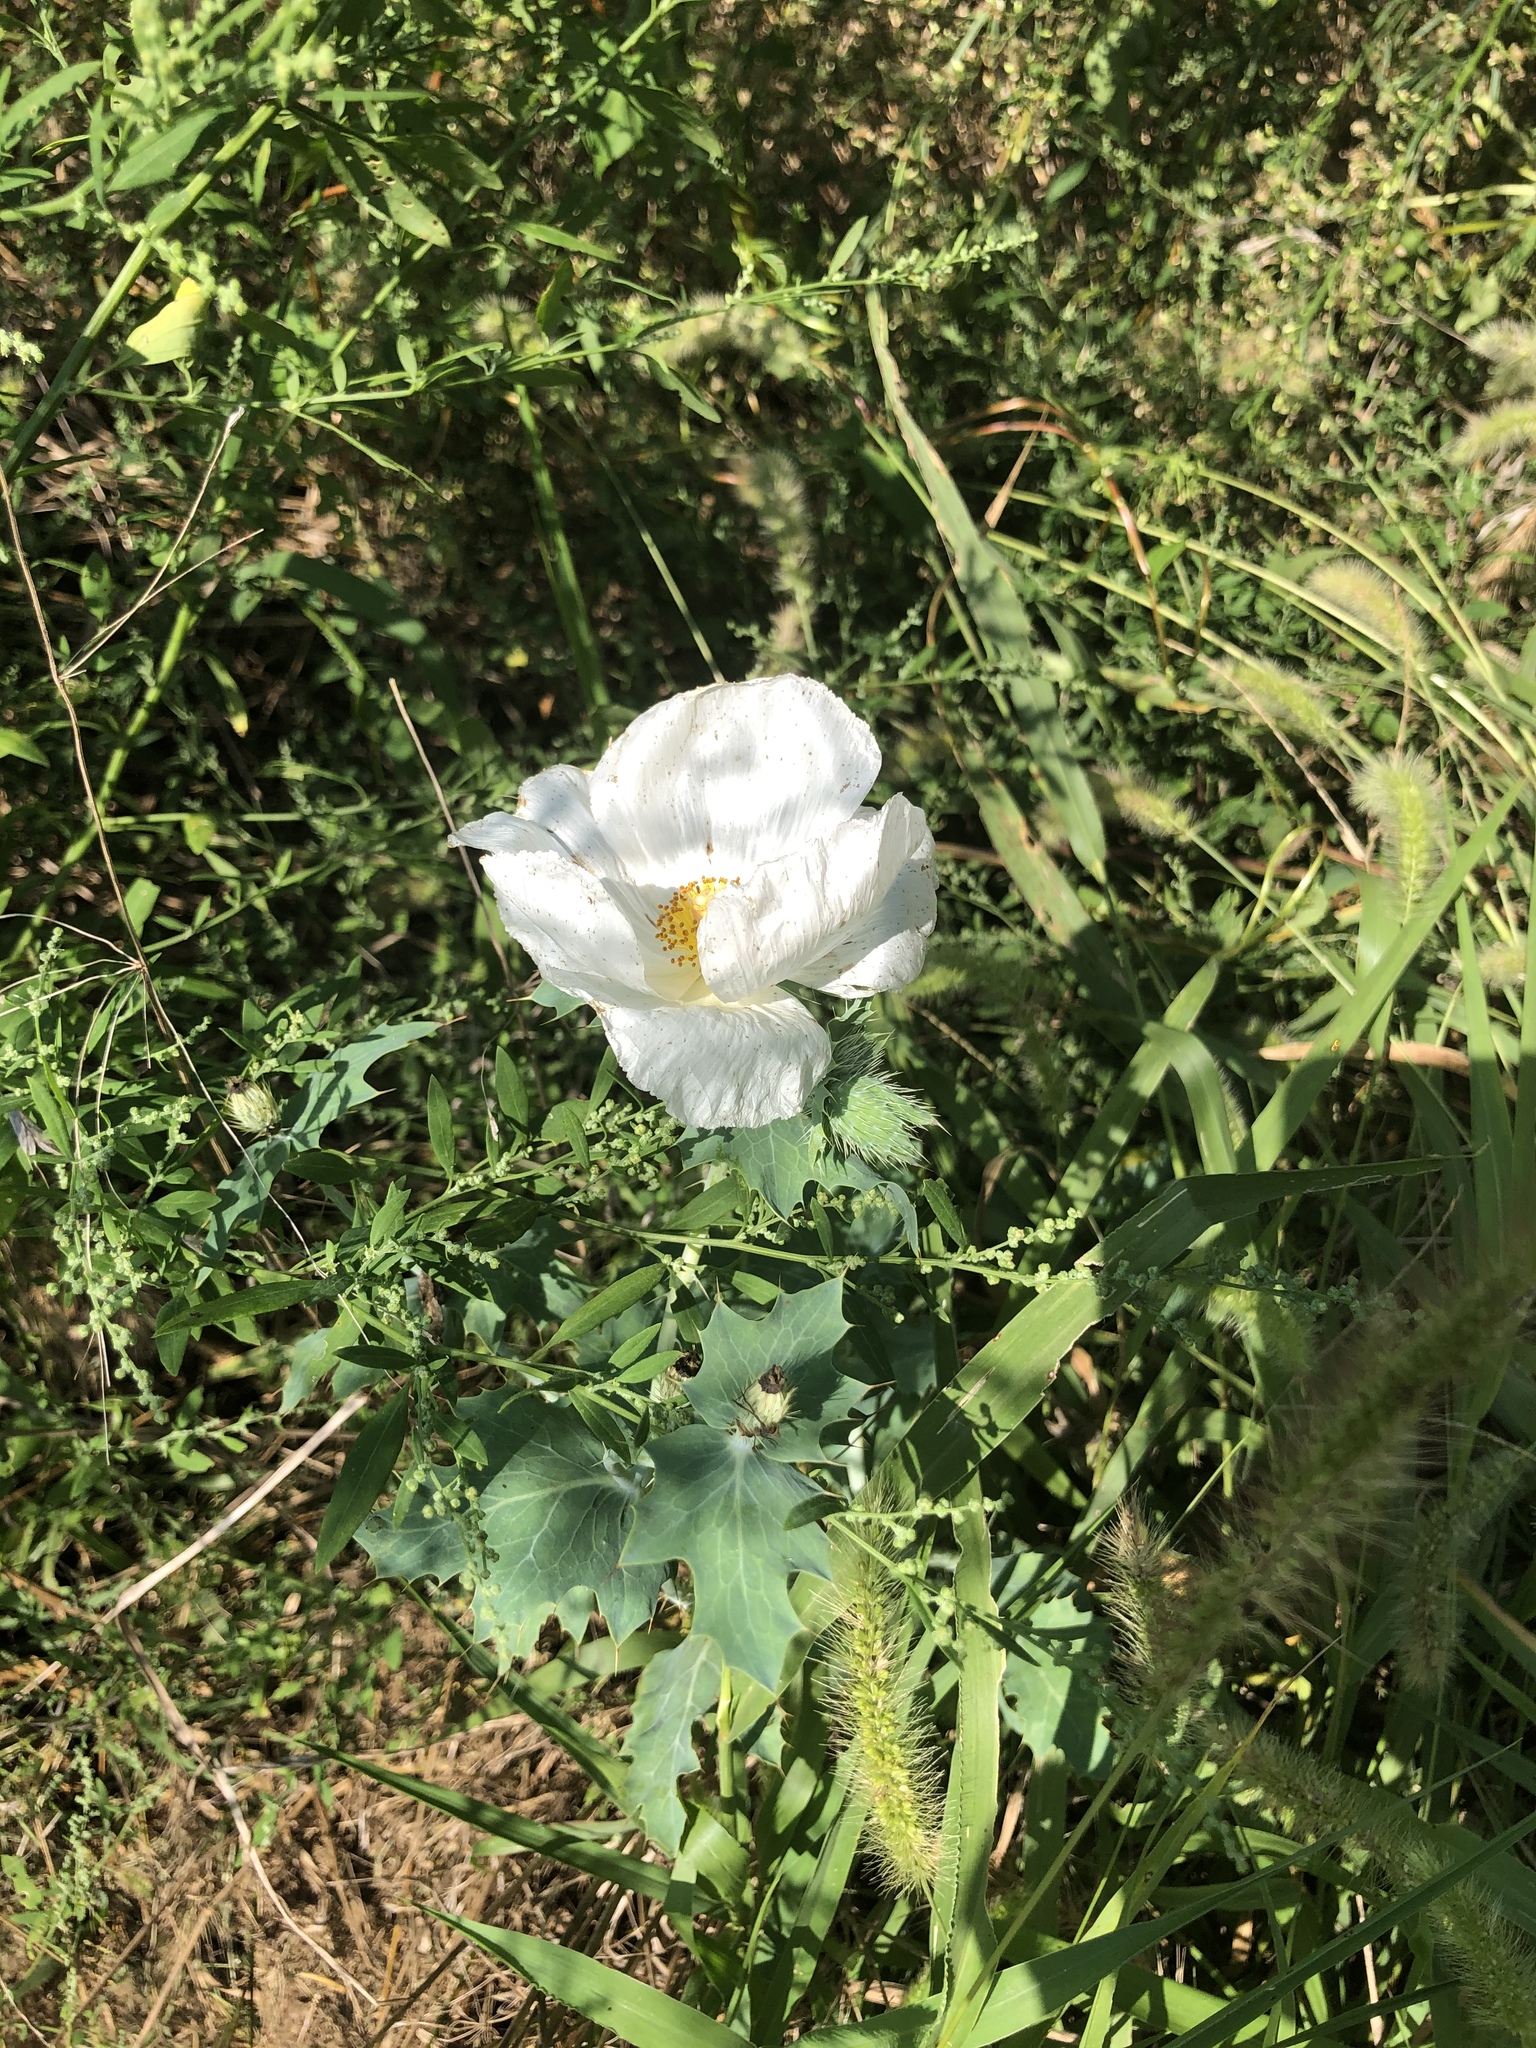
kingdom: Plantae
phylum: Tracheophyta
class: Magnoliopsida
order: Ranunculales
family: Papaveraceae
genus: Argemone
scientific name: Argemone polyanthemos
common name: Plains prickly-poppy
